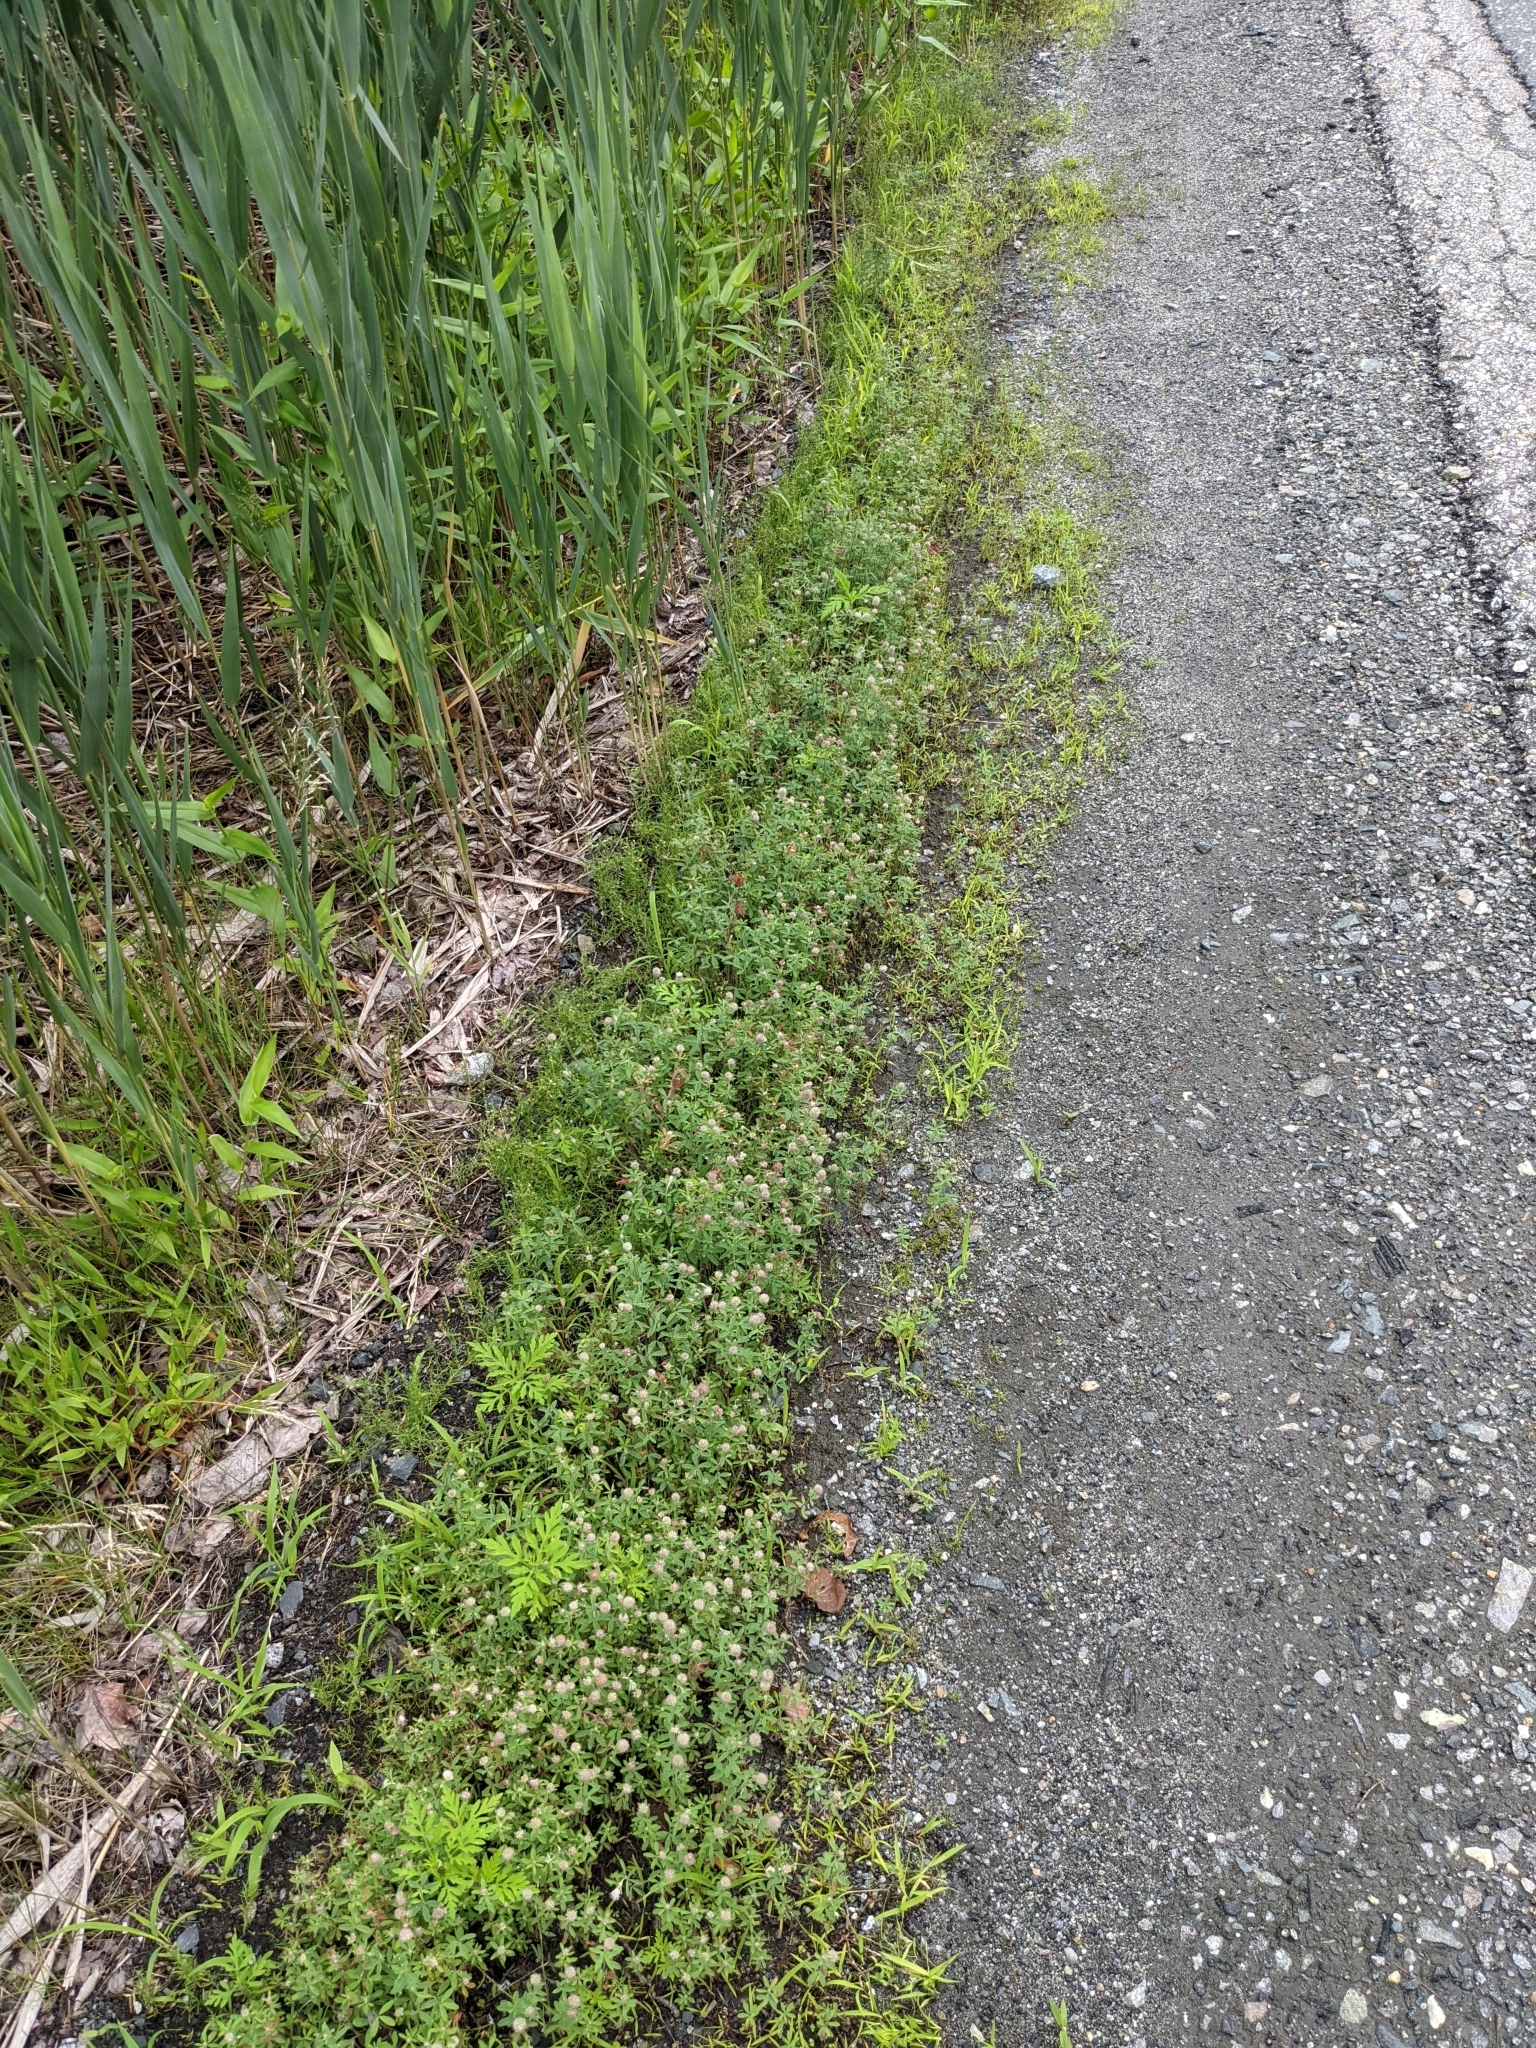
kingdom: Plantae
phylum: Tracheophyta
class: Magnoliopsida
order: Fabales
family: Fabaceae
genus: Trifolium
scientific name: Trifolium arvense
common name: Hare's-foot clover
